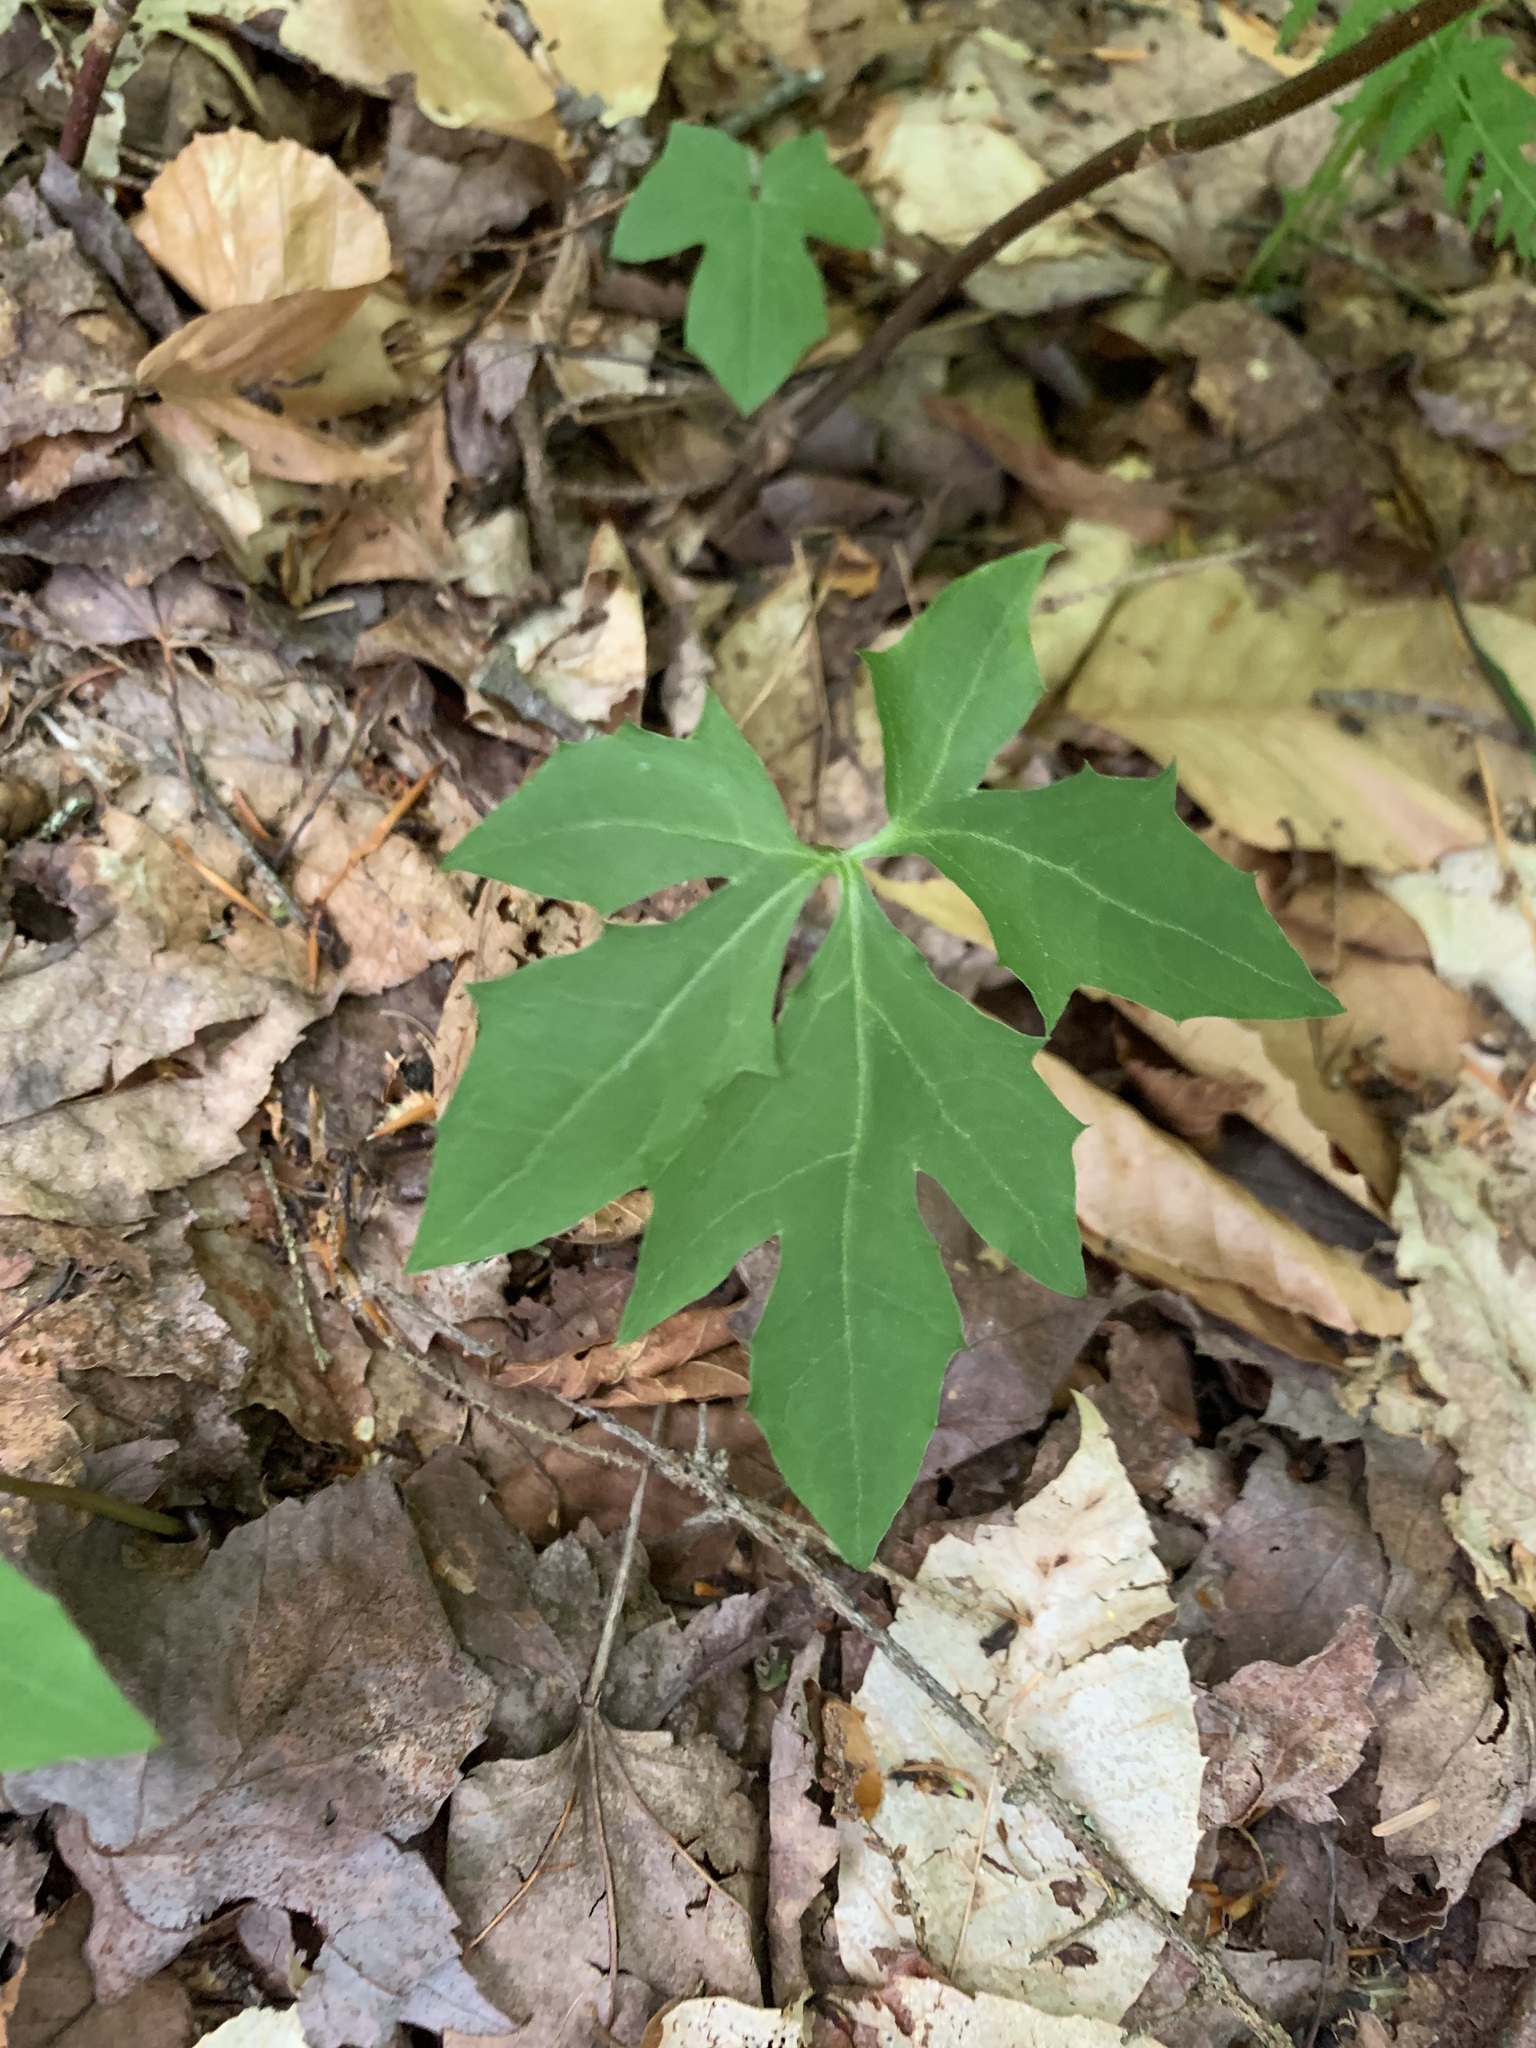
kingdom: Plantae
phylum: Tracheophyta
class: Magnoliopsida
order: Asterales
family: Asteraceae
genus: Nabalus
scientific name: Nabalus
